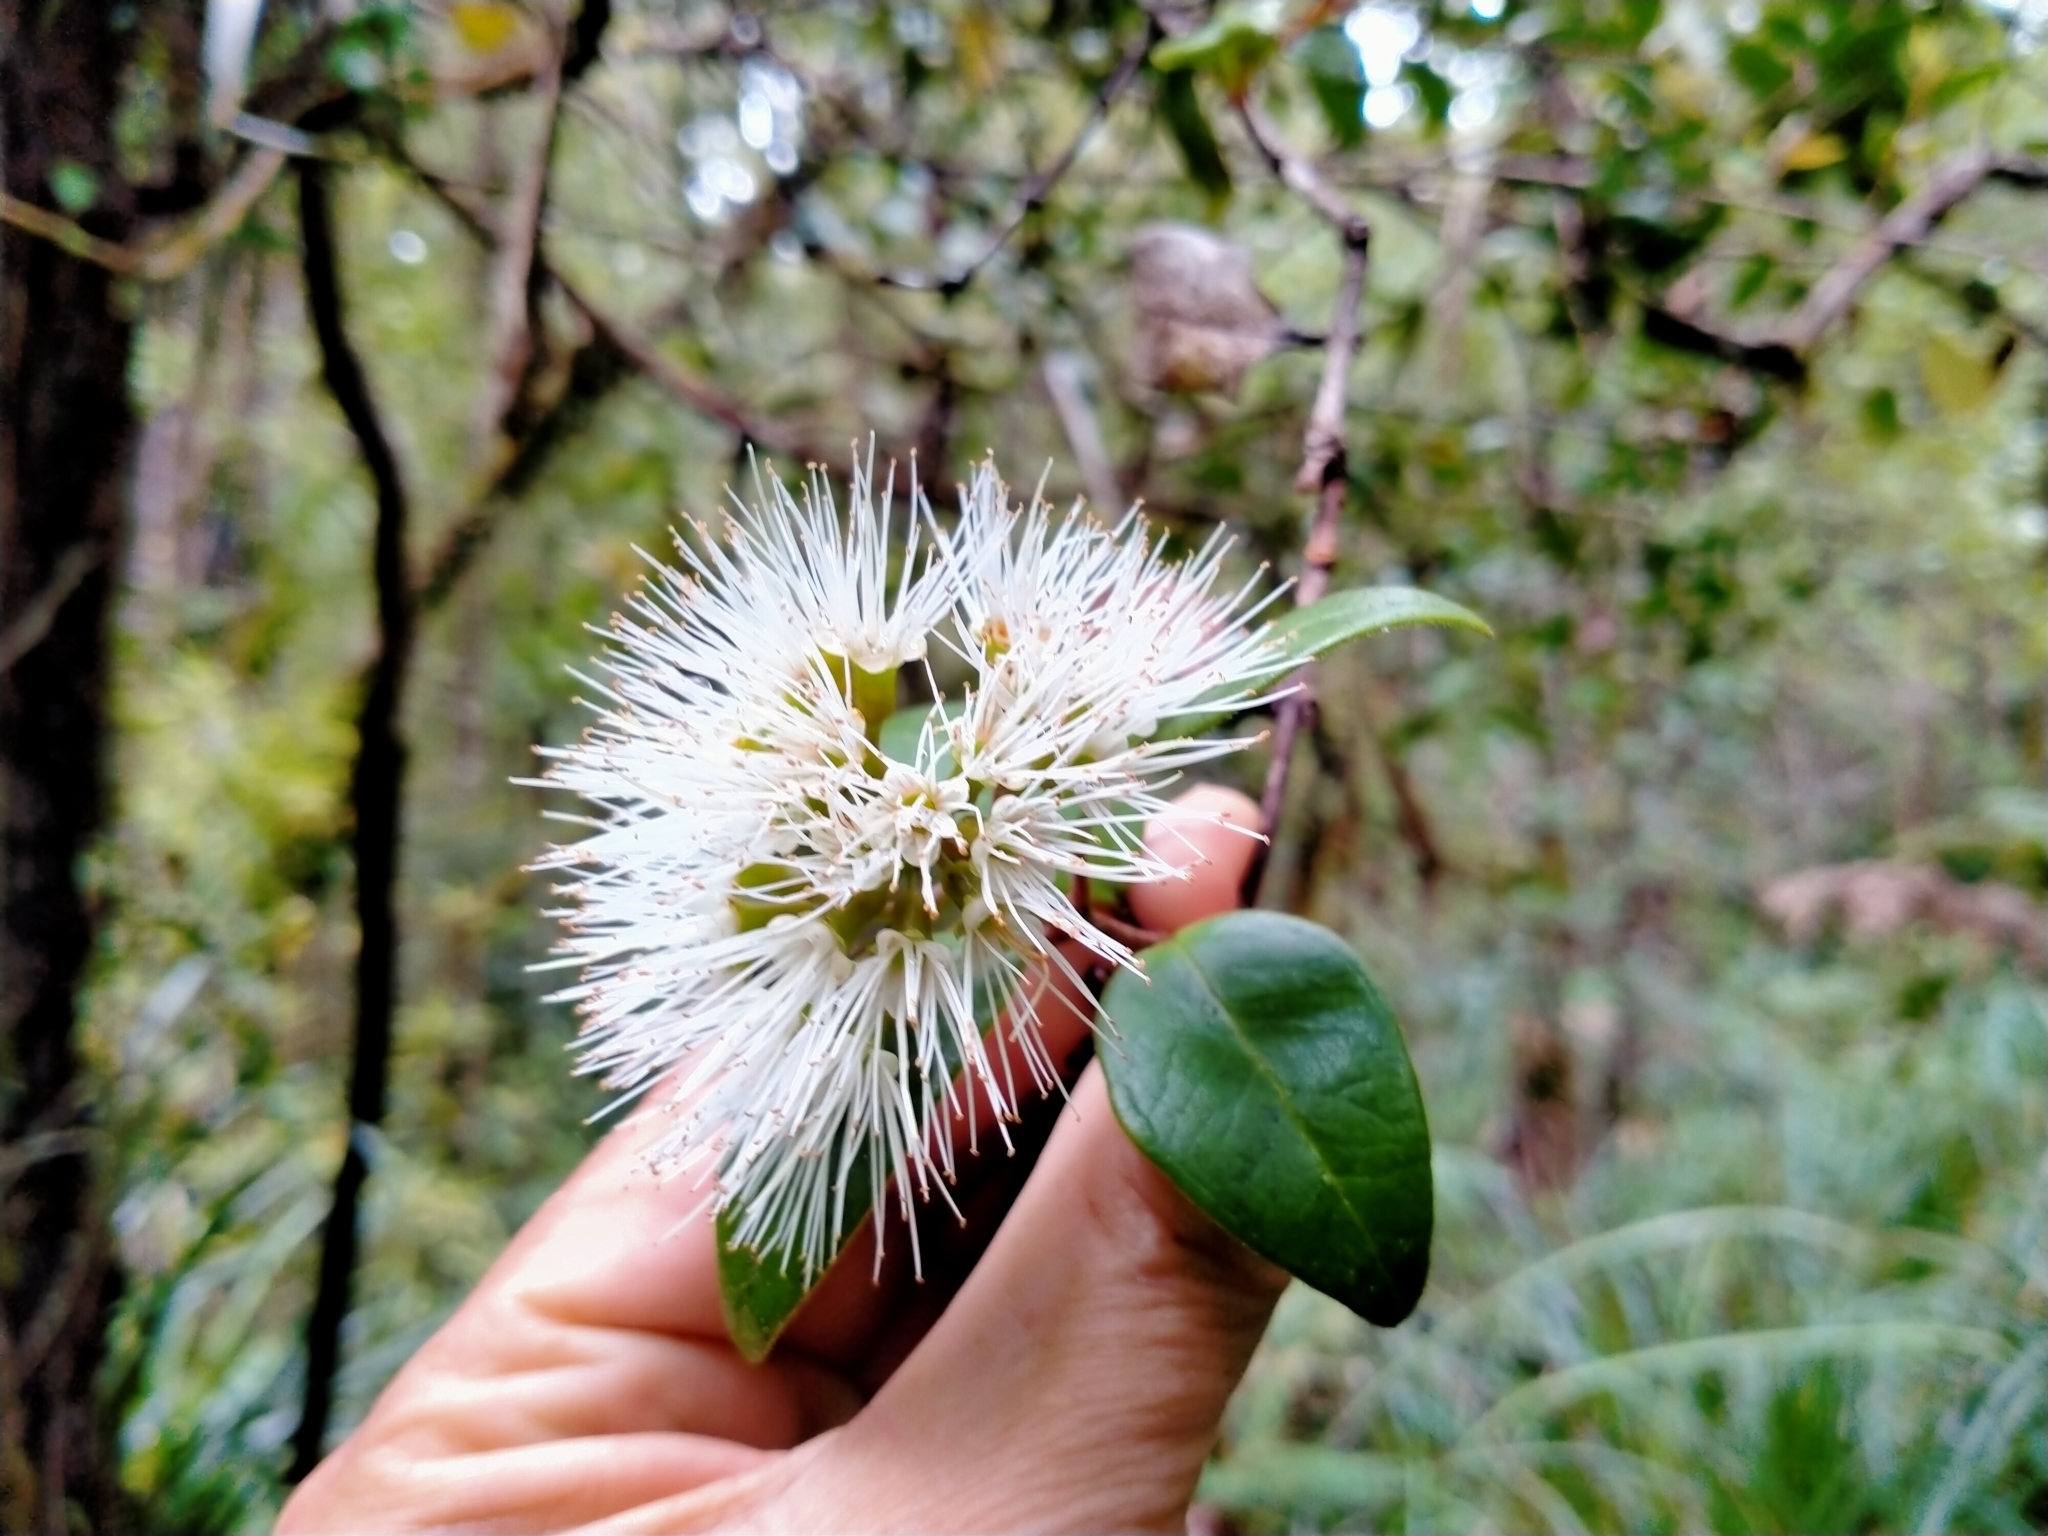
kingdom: Plantae
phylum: Tracheophyta
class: Magnoliopsida
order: Myrtales
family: Myrtaceae
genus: Metrosideros
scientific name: Metrosideros albiflora
